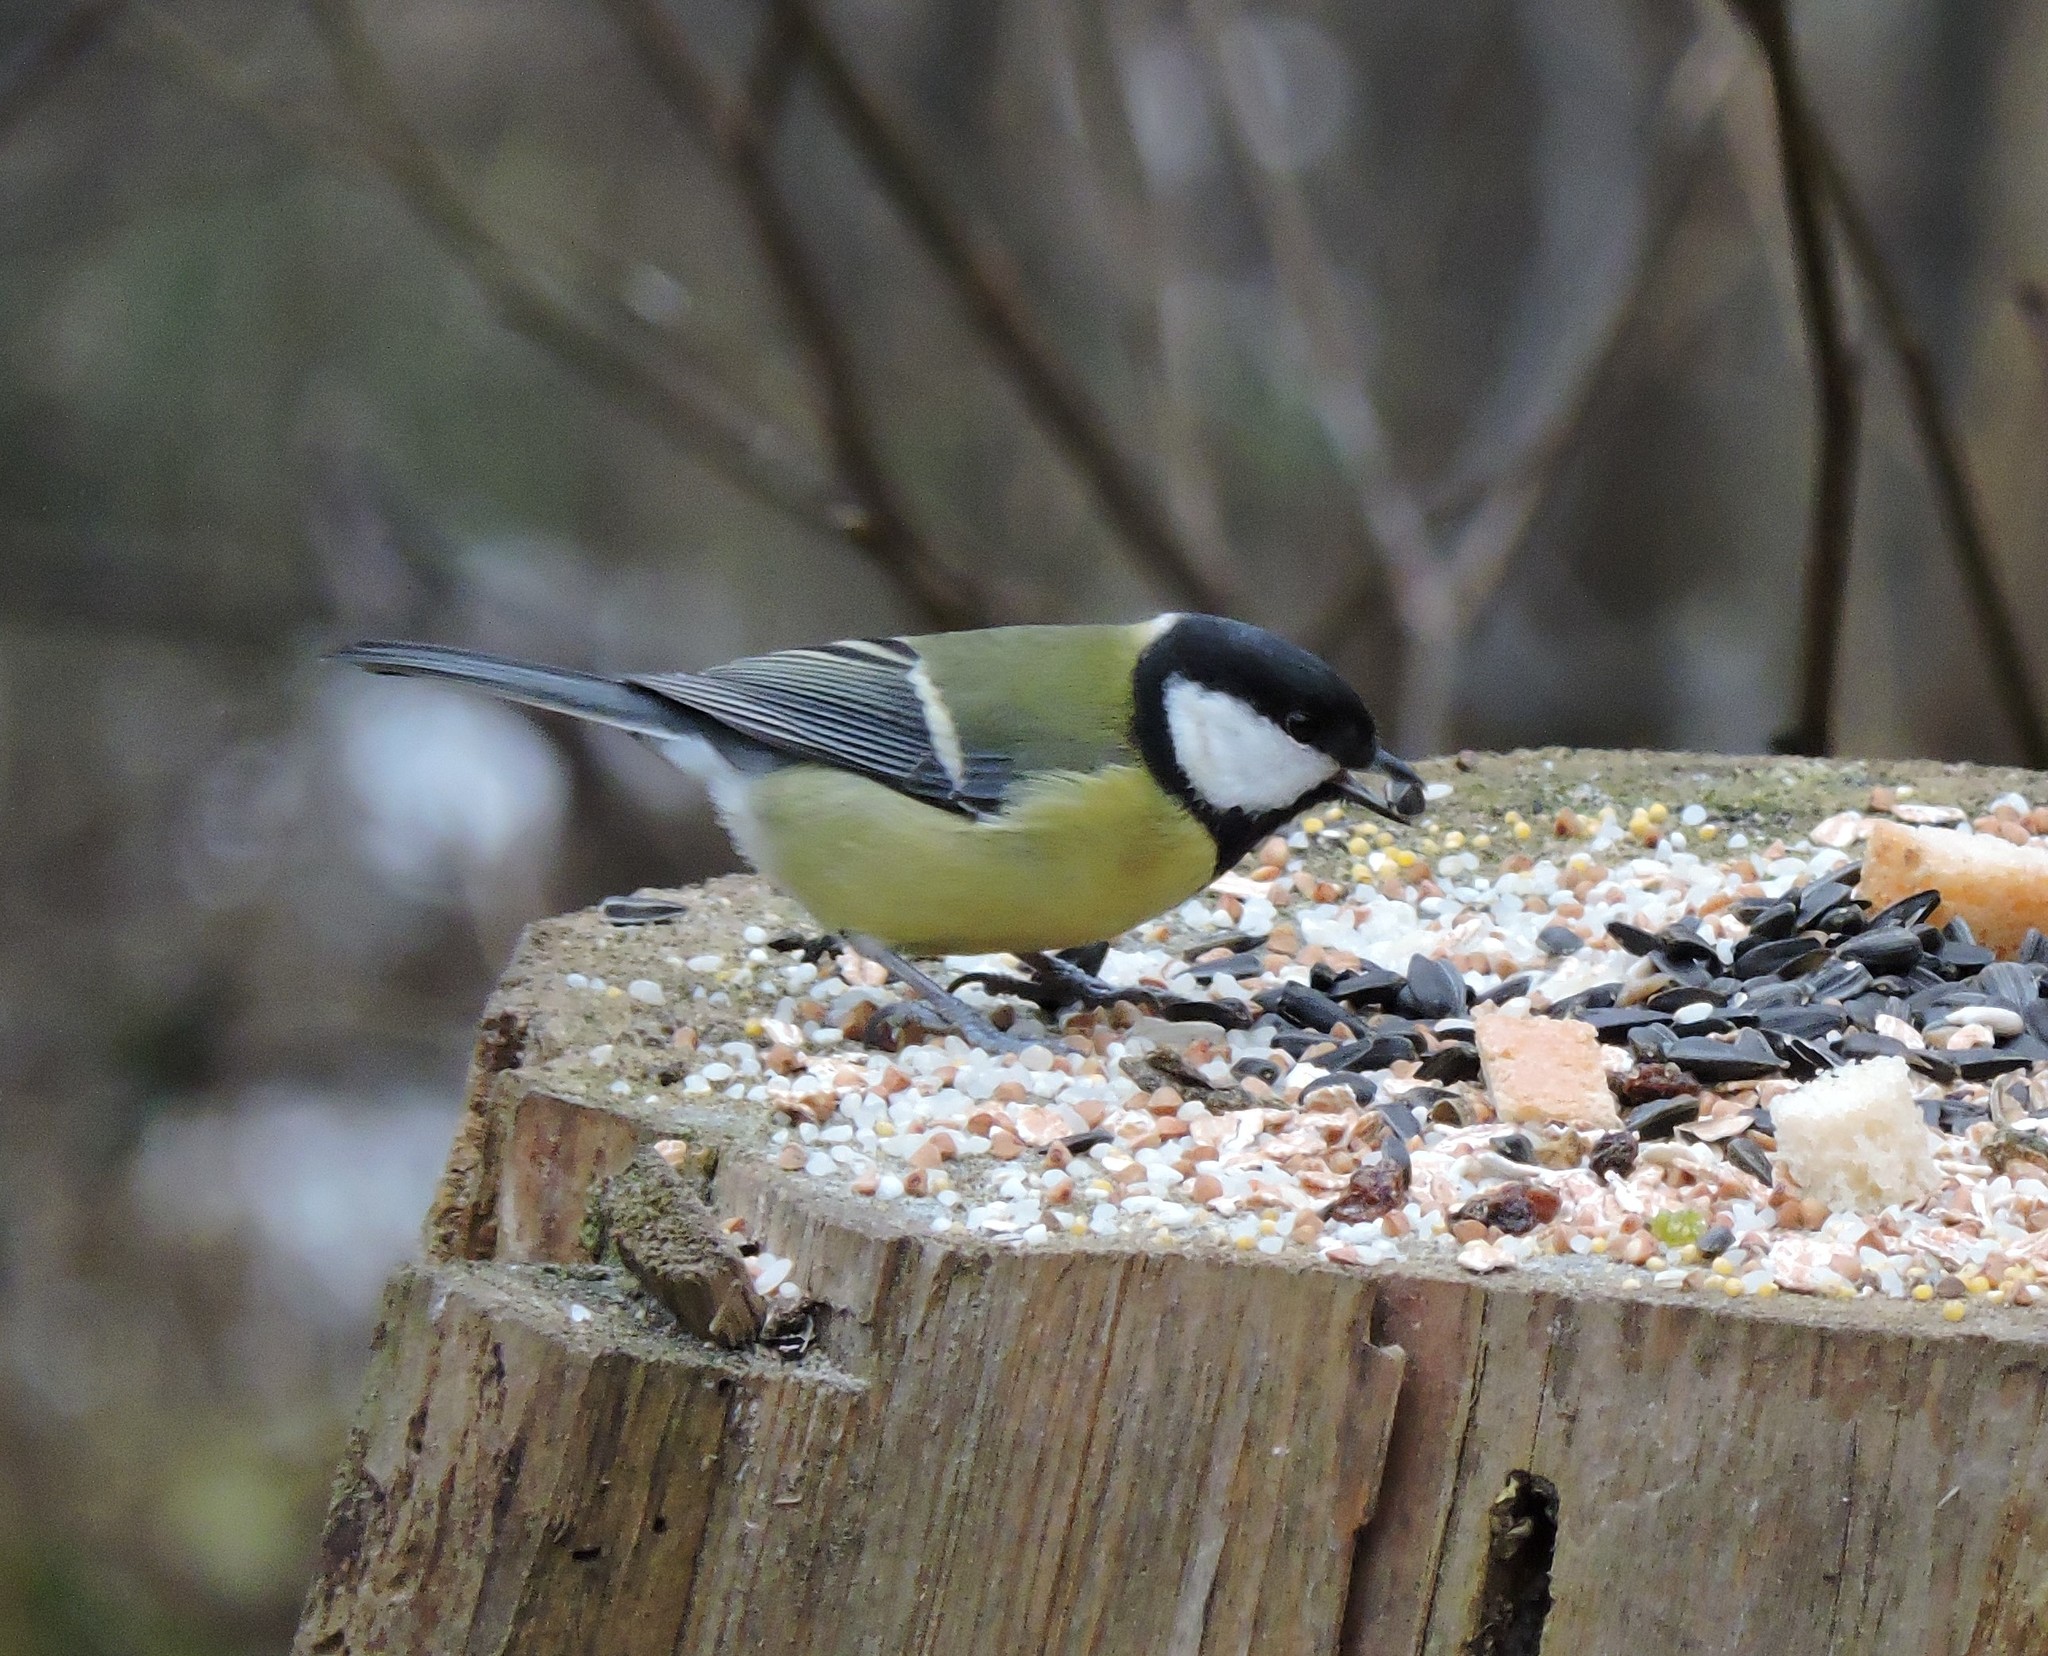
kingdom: Animalia
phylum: Chordata
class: Aves
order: Passeriformes
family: Paridae
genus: Parus
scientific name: Parus major
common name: Great tit
